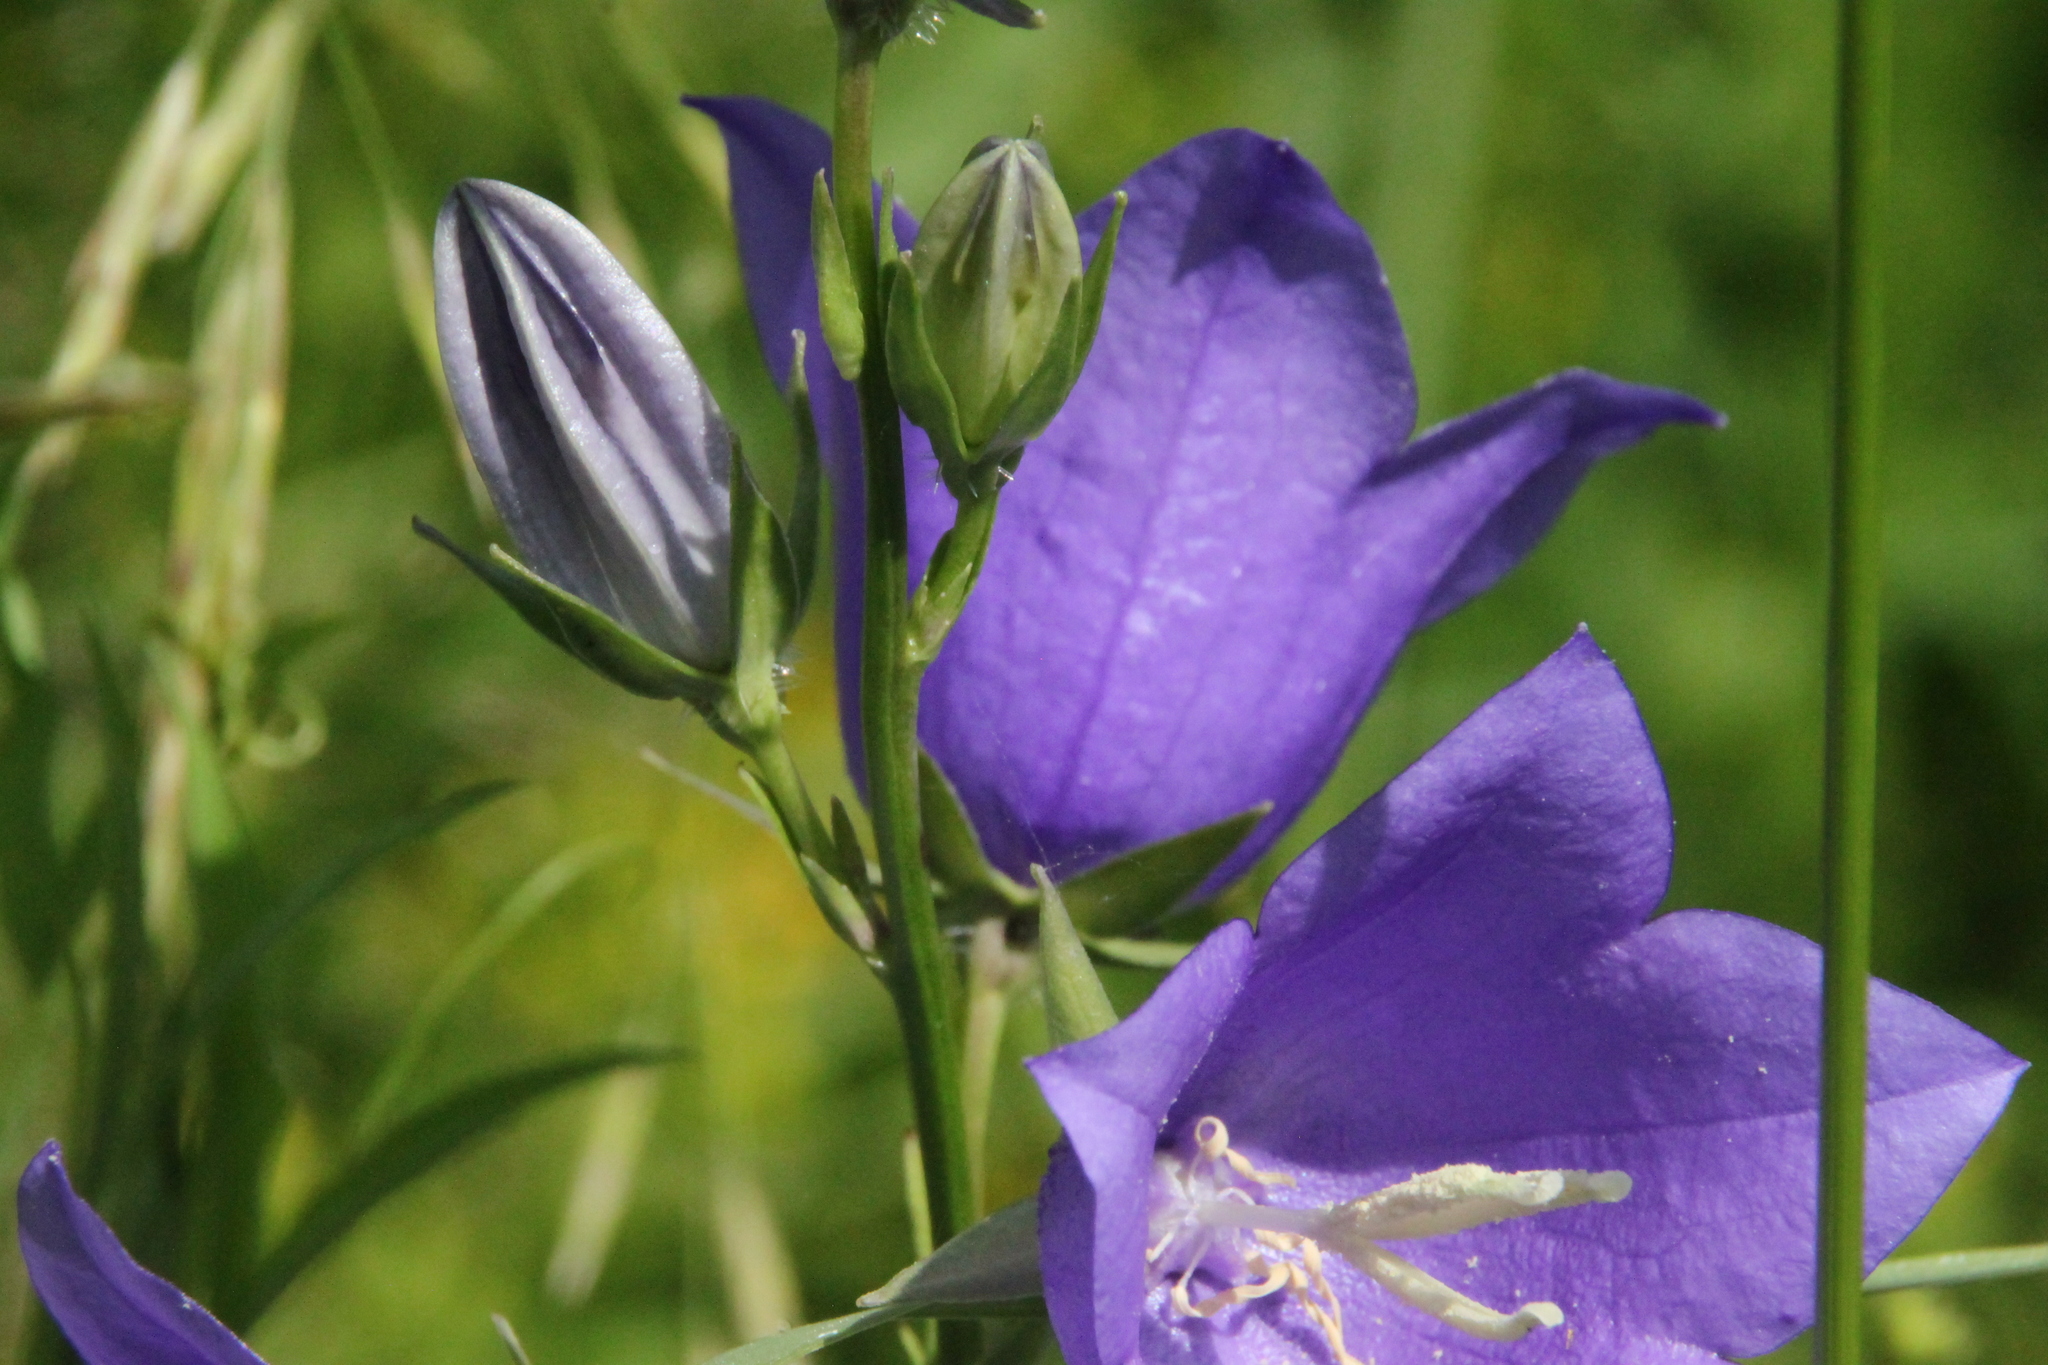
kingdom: Plantae
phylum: Tracheophyta
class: Magnoliopsida
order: Asterales
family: Campanulaceae
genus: Campanula
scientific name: Campanula persicifolia
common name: Peach-leaved bellflower
